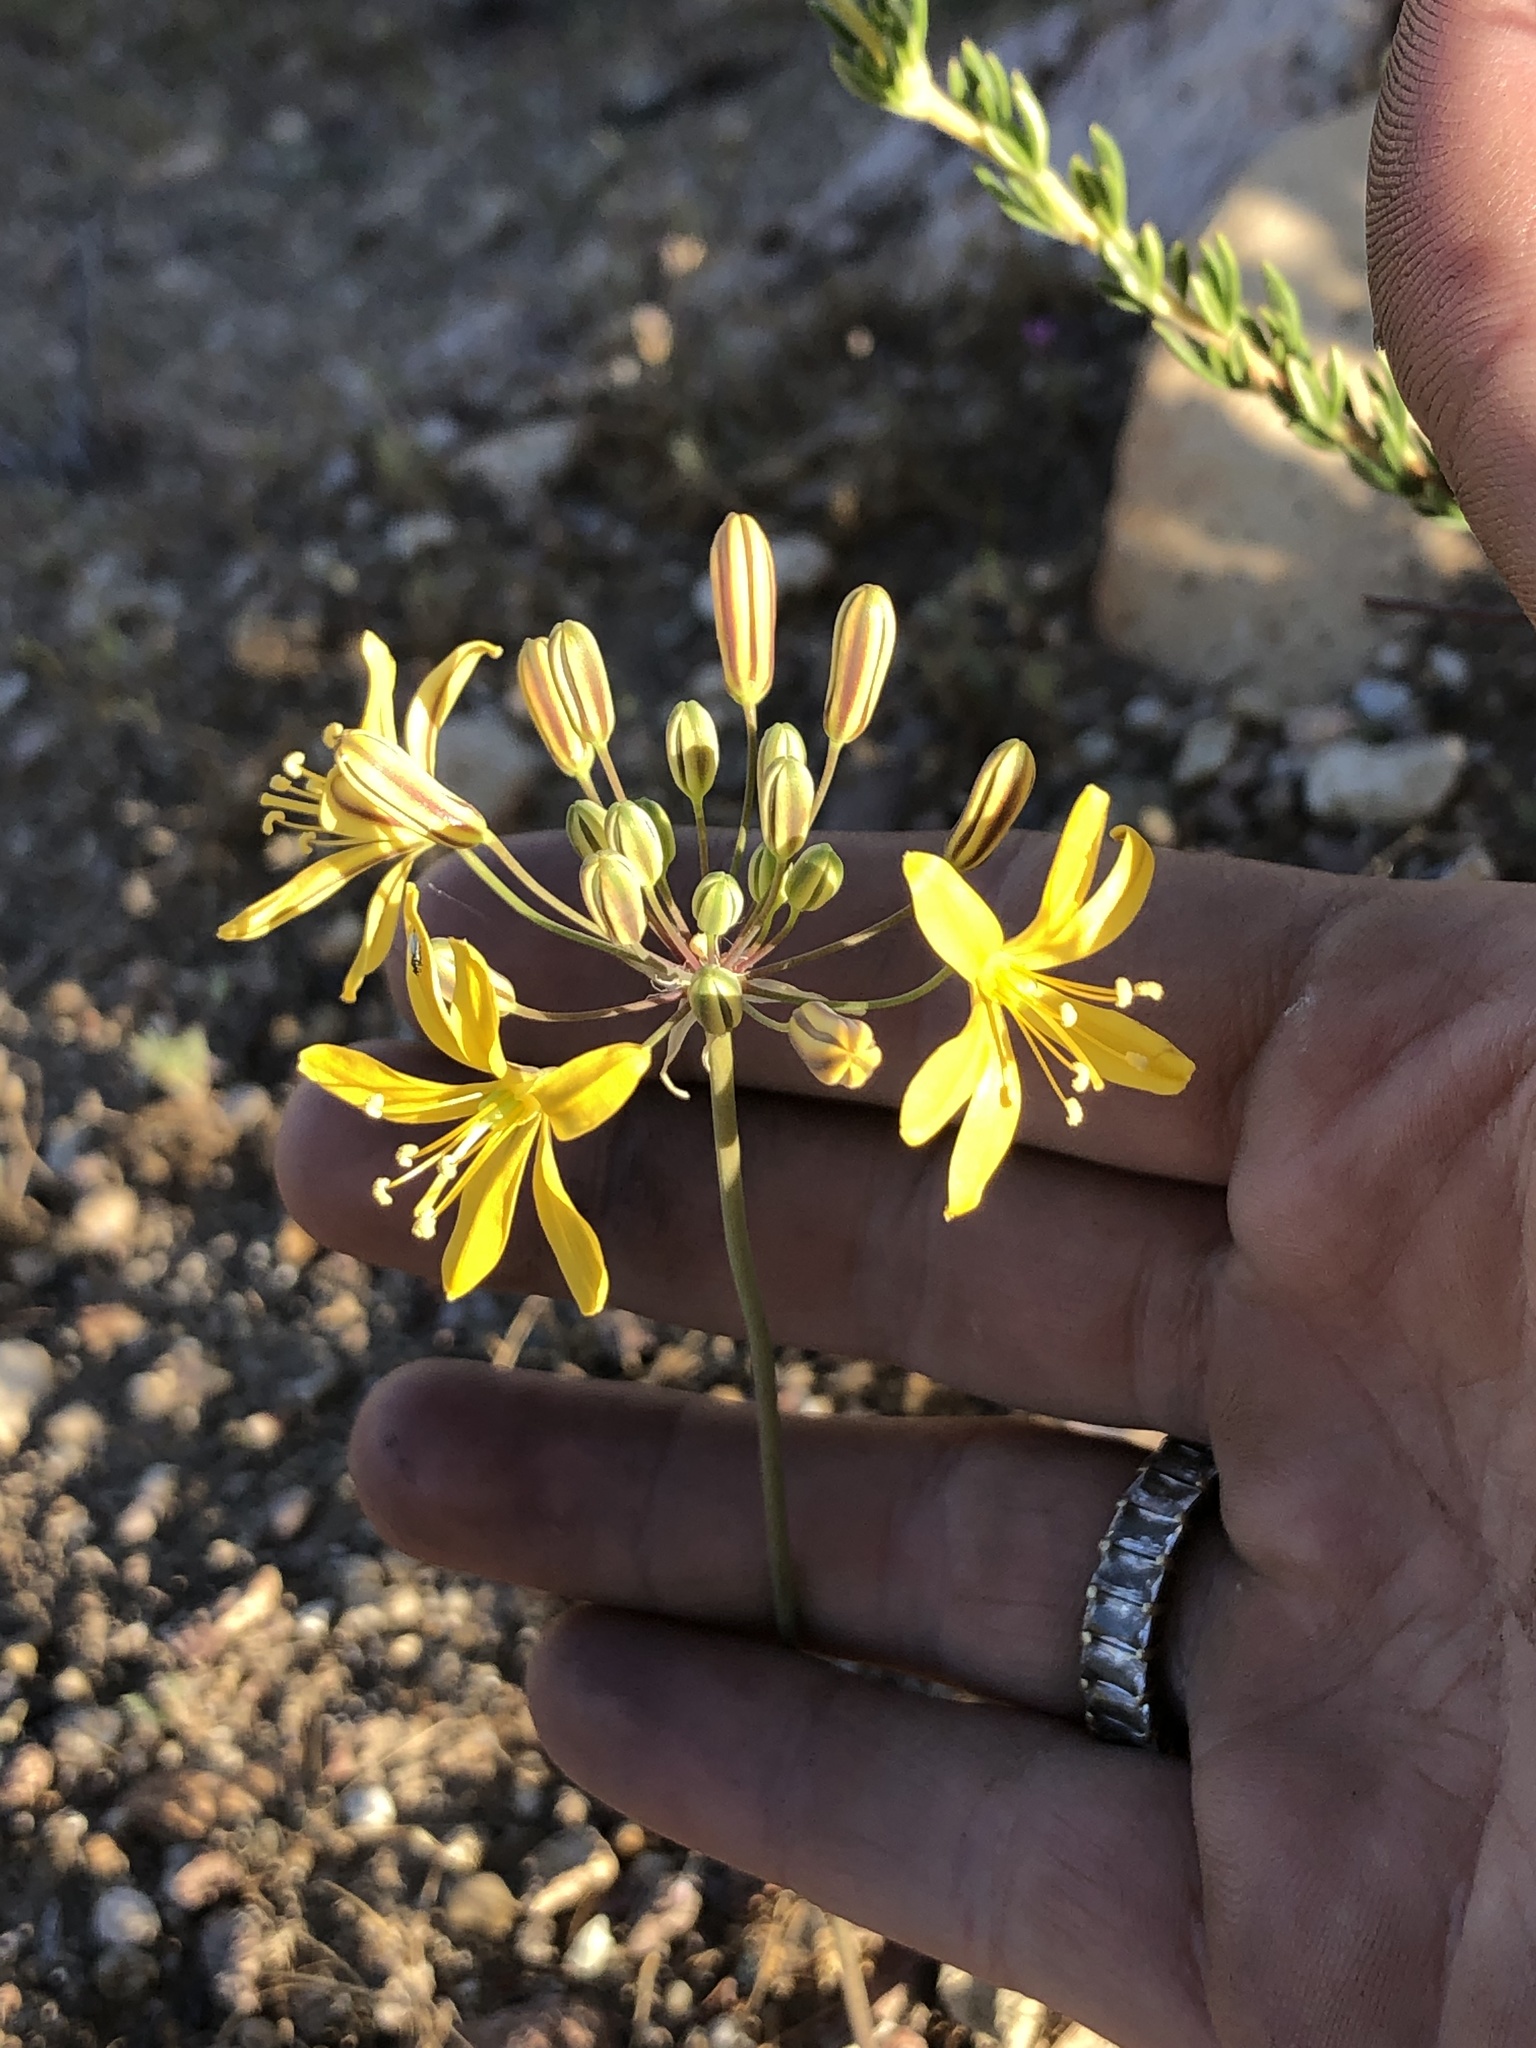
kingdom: Plantae
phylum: Tracheophyta
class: Liliopsida
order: Asparagales
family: Asparagaceae
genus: Bloomeria
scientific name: Bloomeria crocea
